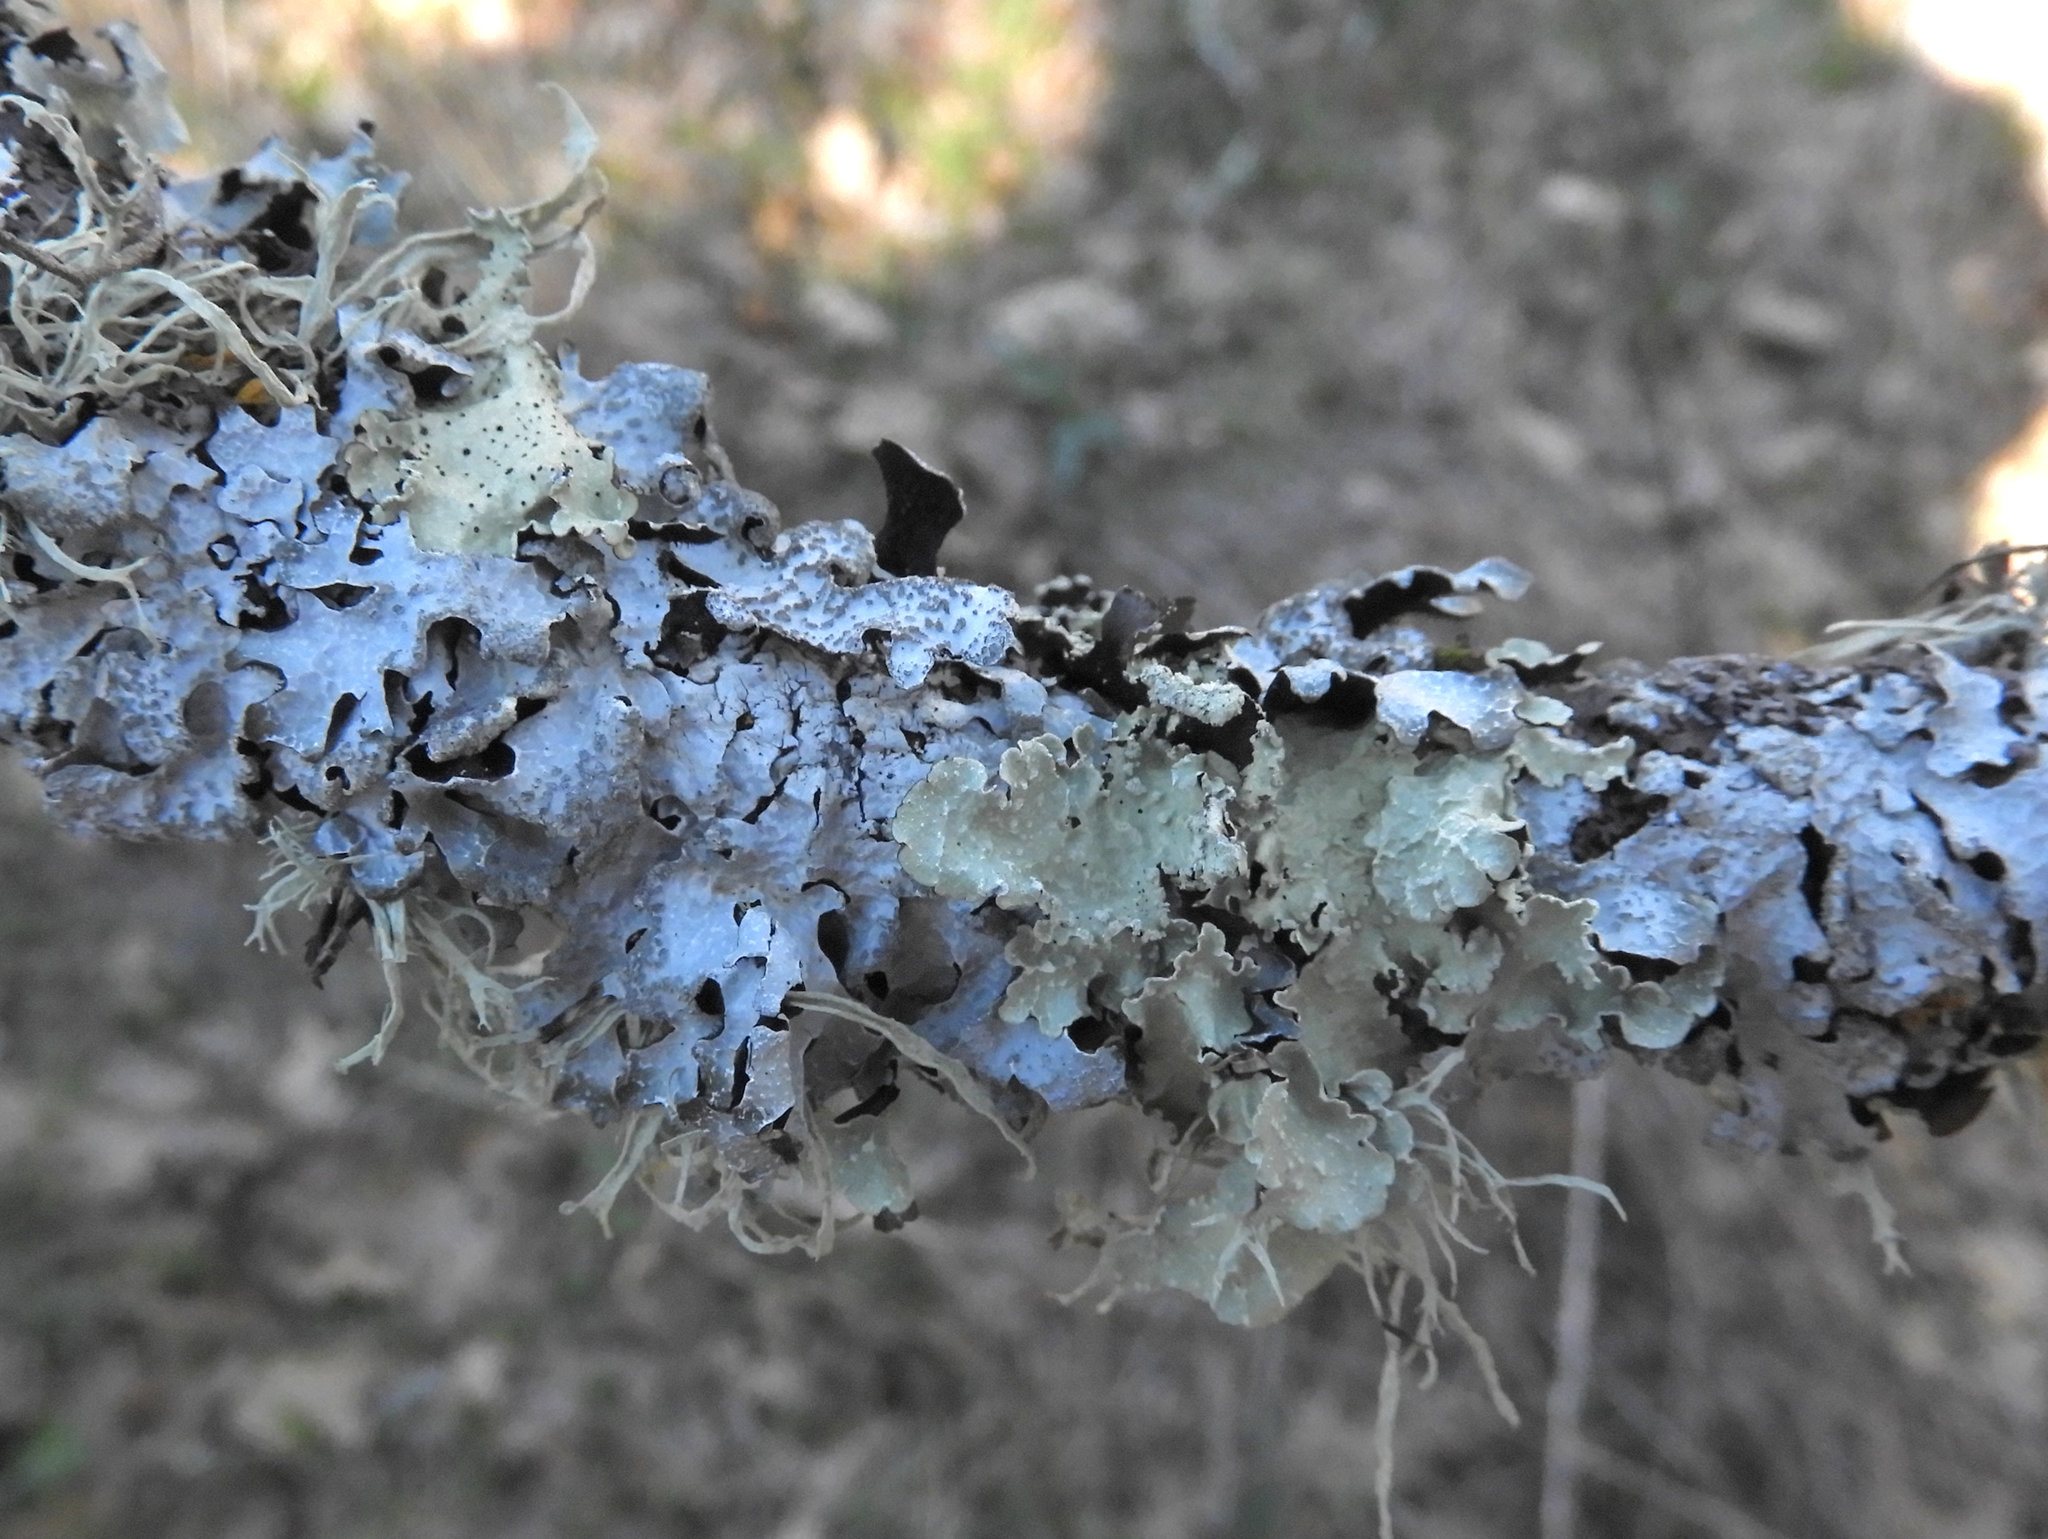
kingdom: Fungi
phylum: Ascomycota
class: Lecanoromycetes
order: Lecanorales
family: Parmeliaceae
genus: Parmelia
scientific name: Parmelia sulcata
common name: Netted shield lichen
